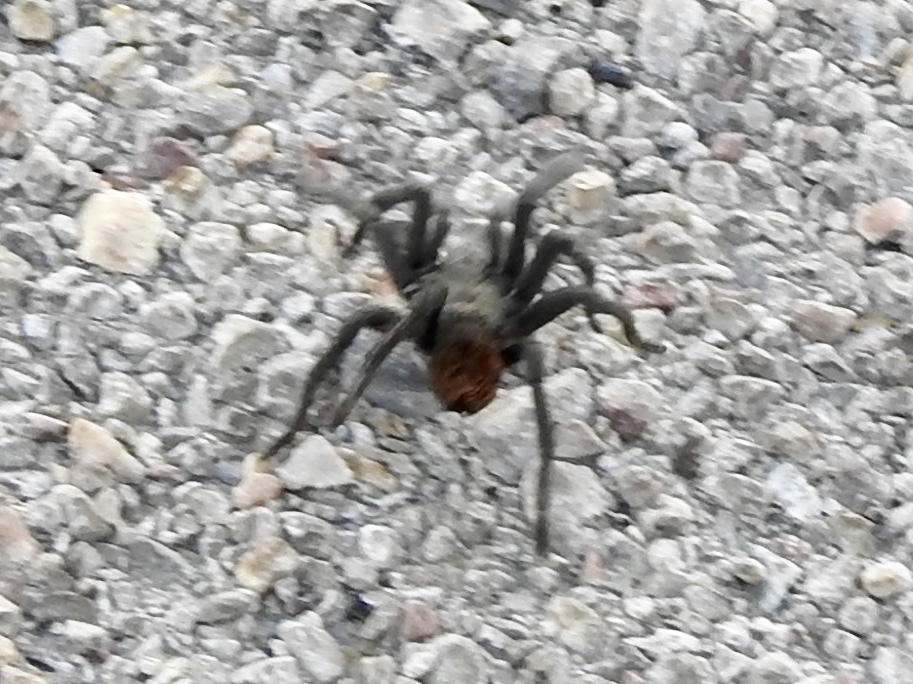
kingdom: Animalia
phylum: Arthropoda
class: Arachnida
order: Araneae
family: Theraphosidae
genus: Aphonopelma
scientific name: Aphonopelma vorhiesi
